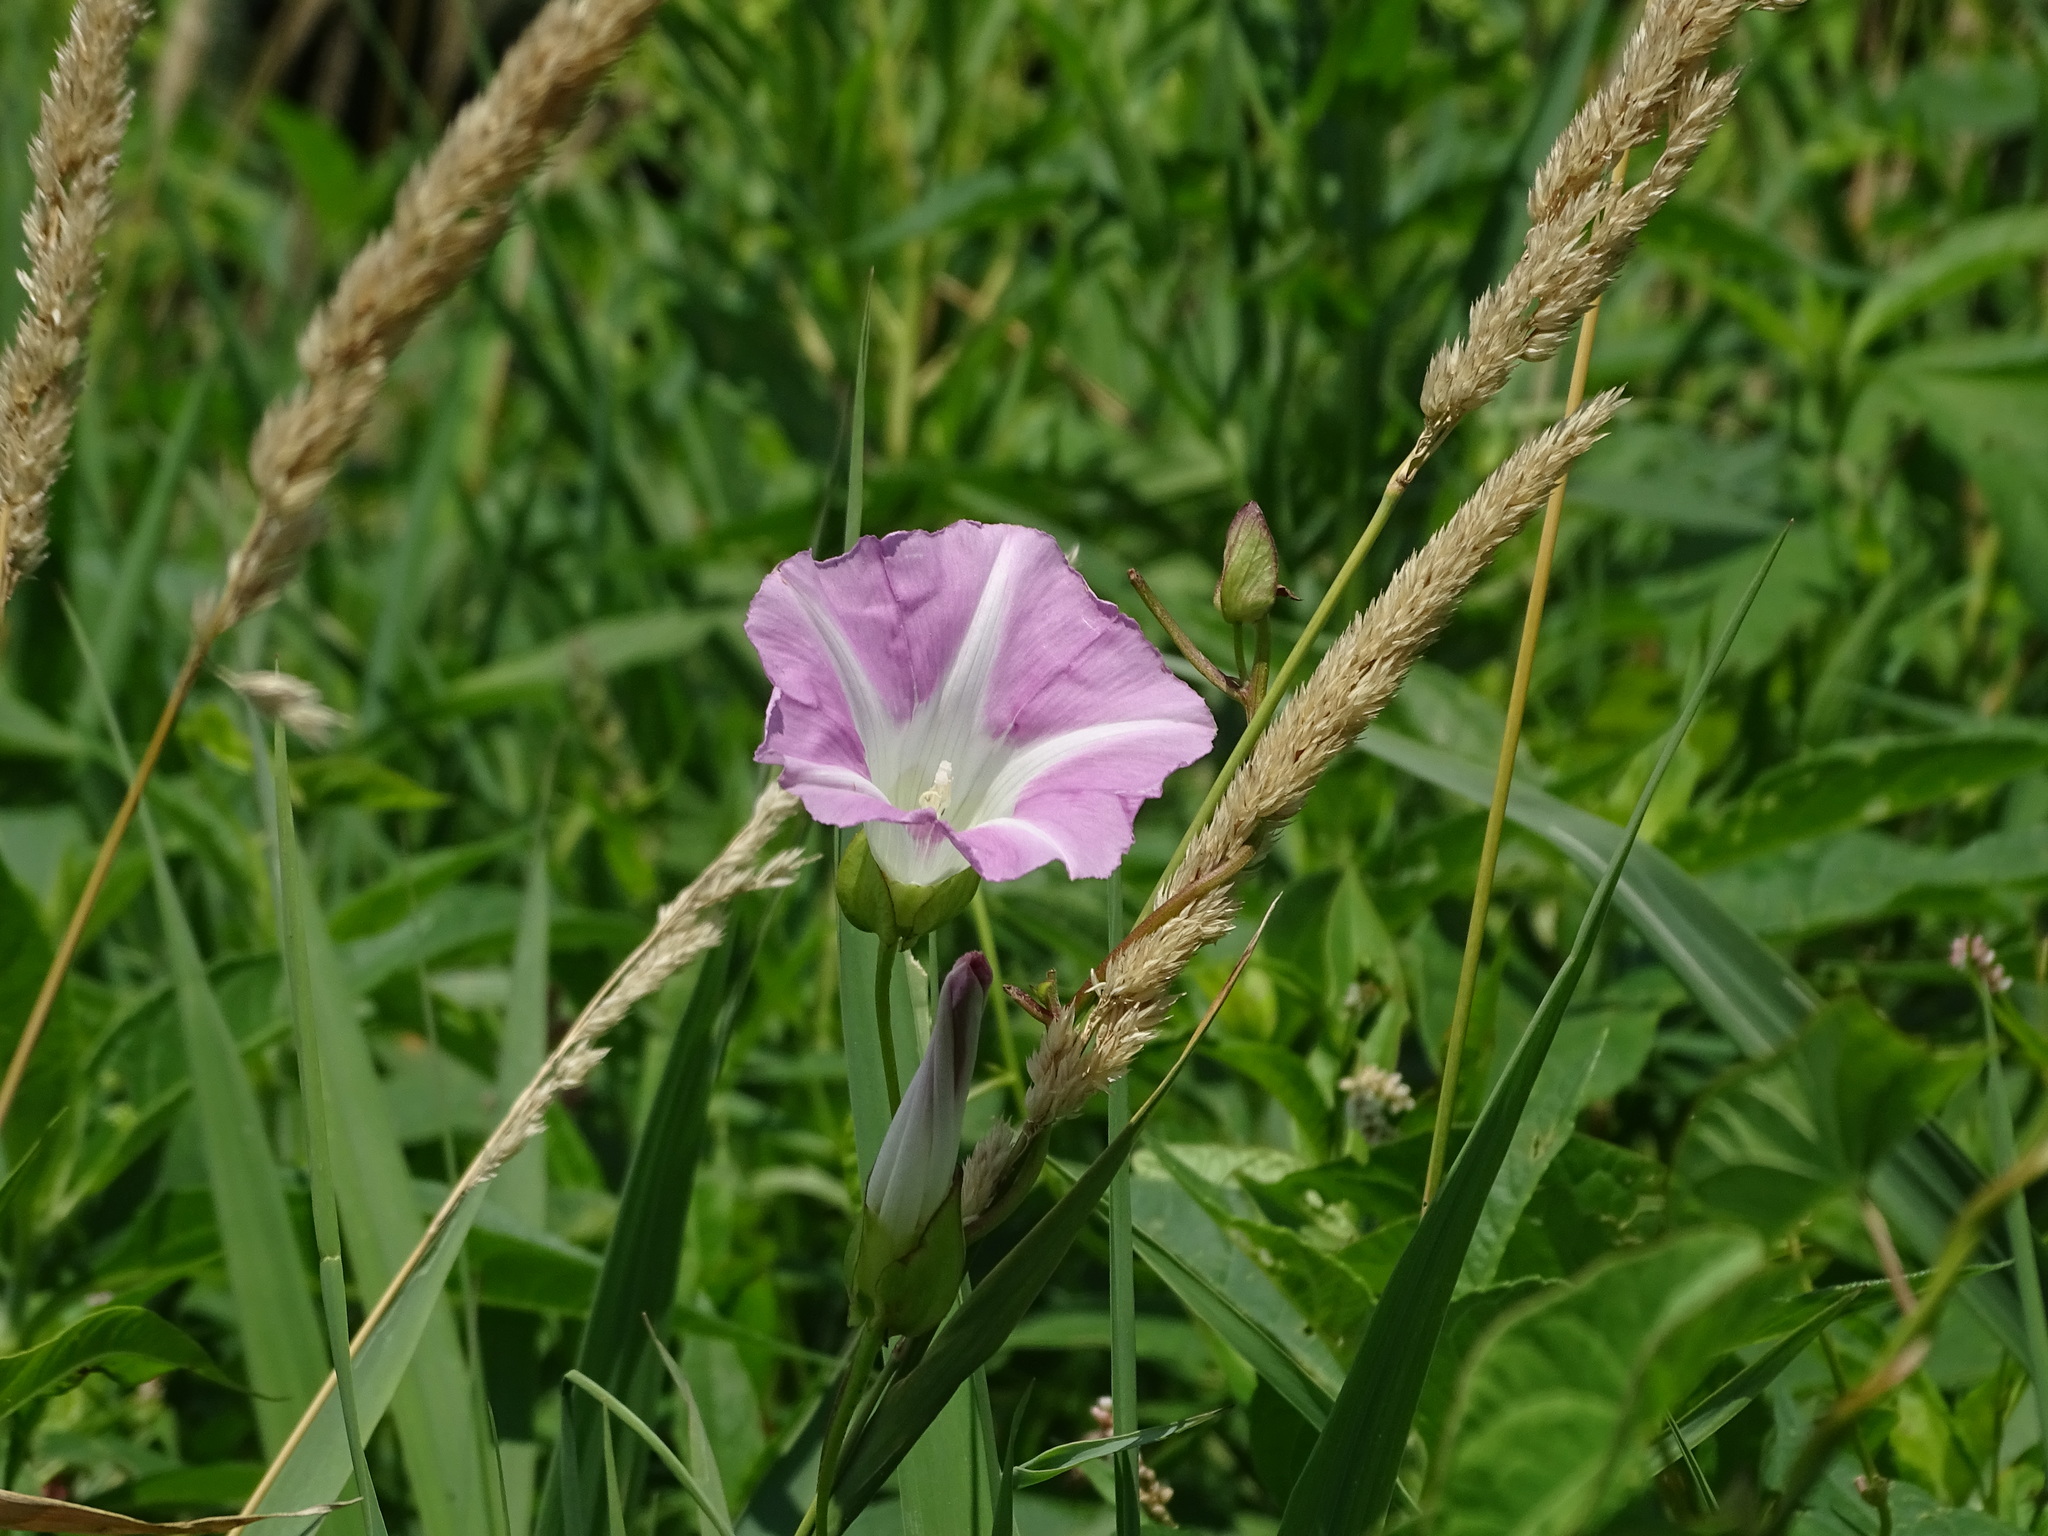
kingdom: Plantae
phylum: Tracheophyta
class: Magnoliopsida
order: Solanales
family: Convolvulaceae
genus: Calystegia
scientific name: Calystegia sepium
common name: Hedge bindweed
